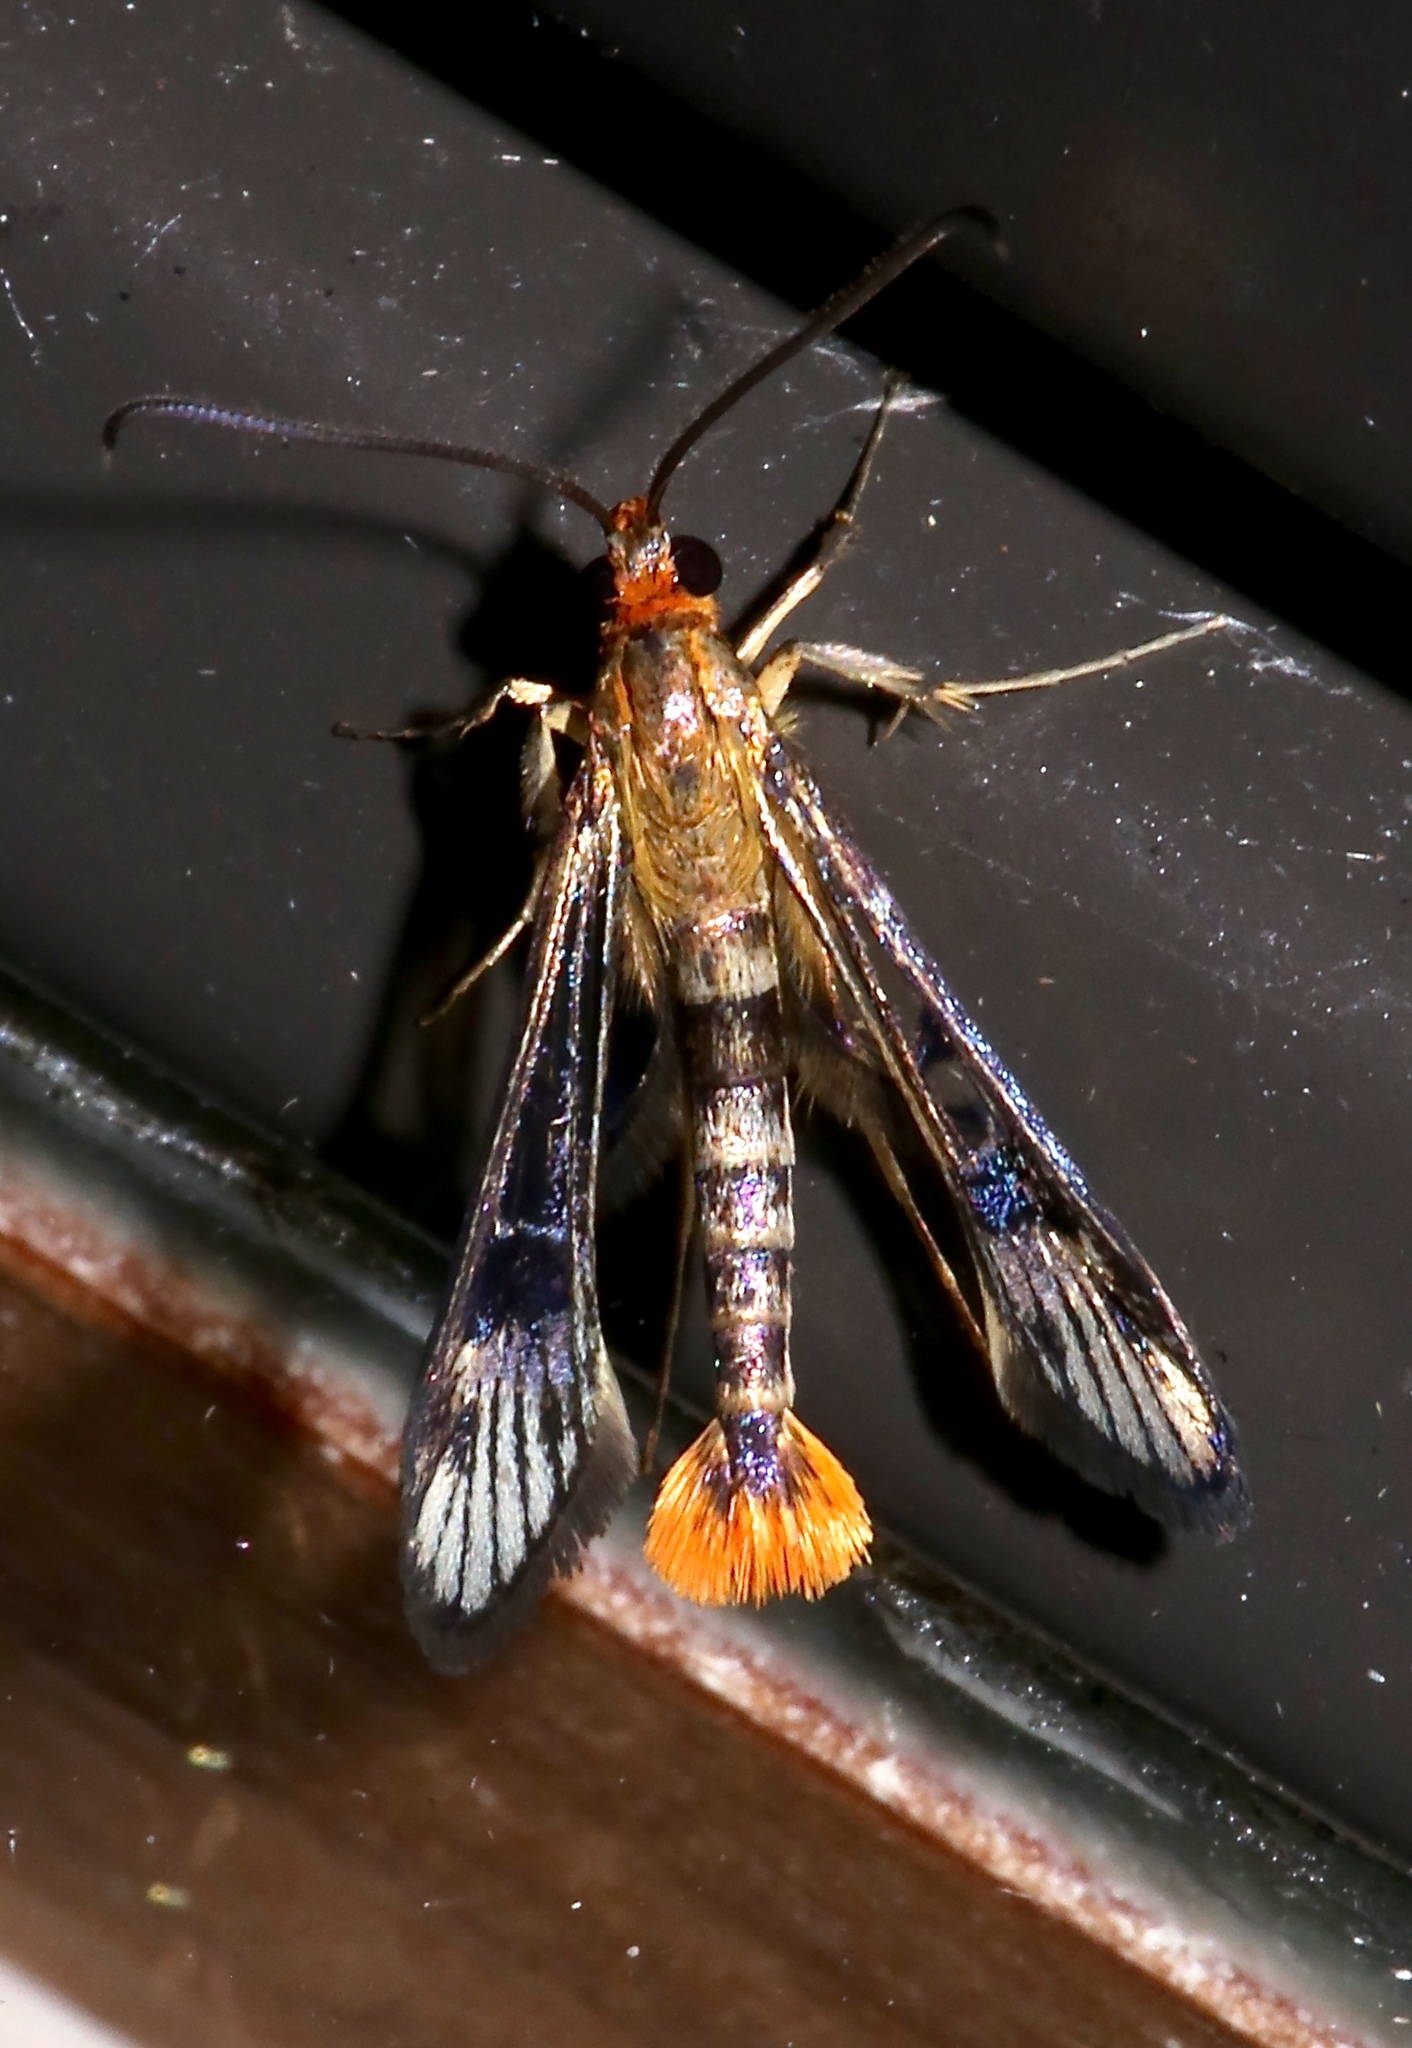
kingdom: Animalia
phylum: Arthropoda
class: Insecta
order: Lepidoptera
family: Sesiidae
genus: Synanthedon
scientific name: Synanthedon acerni
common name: Maple callus borer moth
